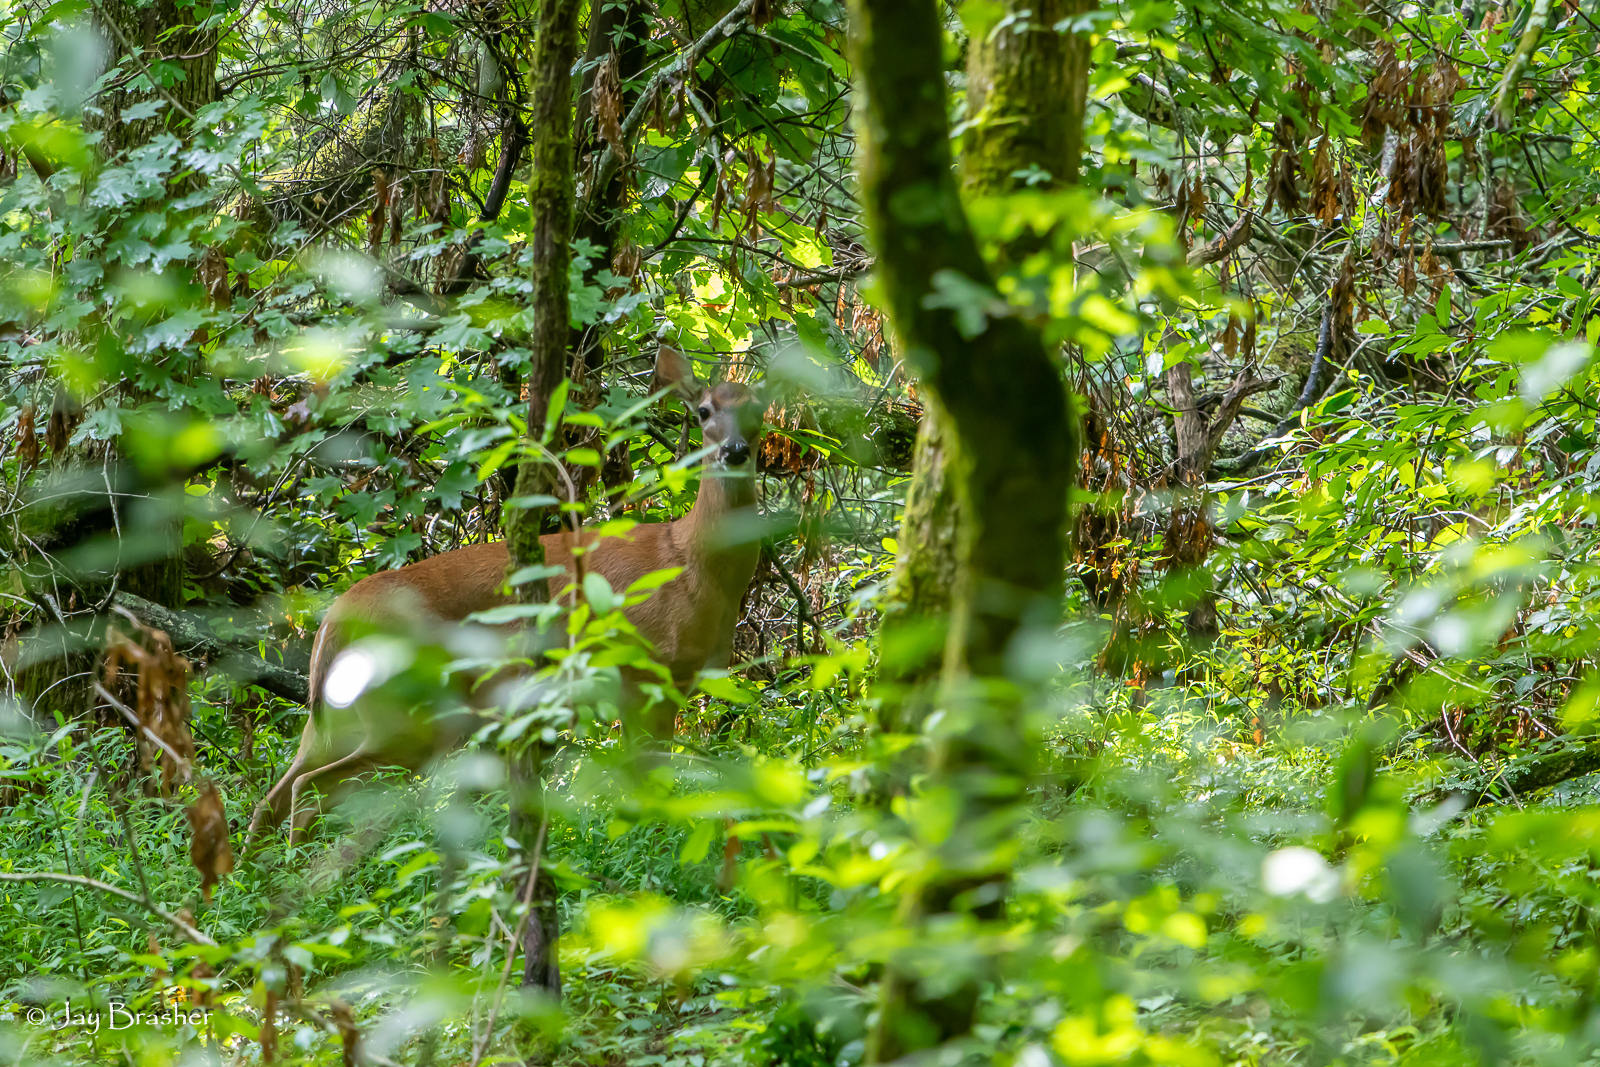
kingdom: Animalia
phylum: Chordata
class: Mammalia
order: Artiodactyla
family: Cervidae
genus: Odocoileus
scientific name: Odocoileus virginianus
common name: White-tailed deer
